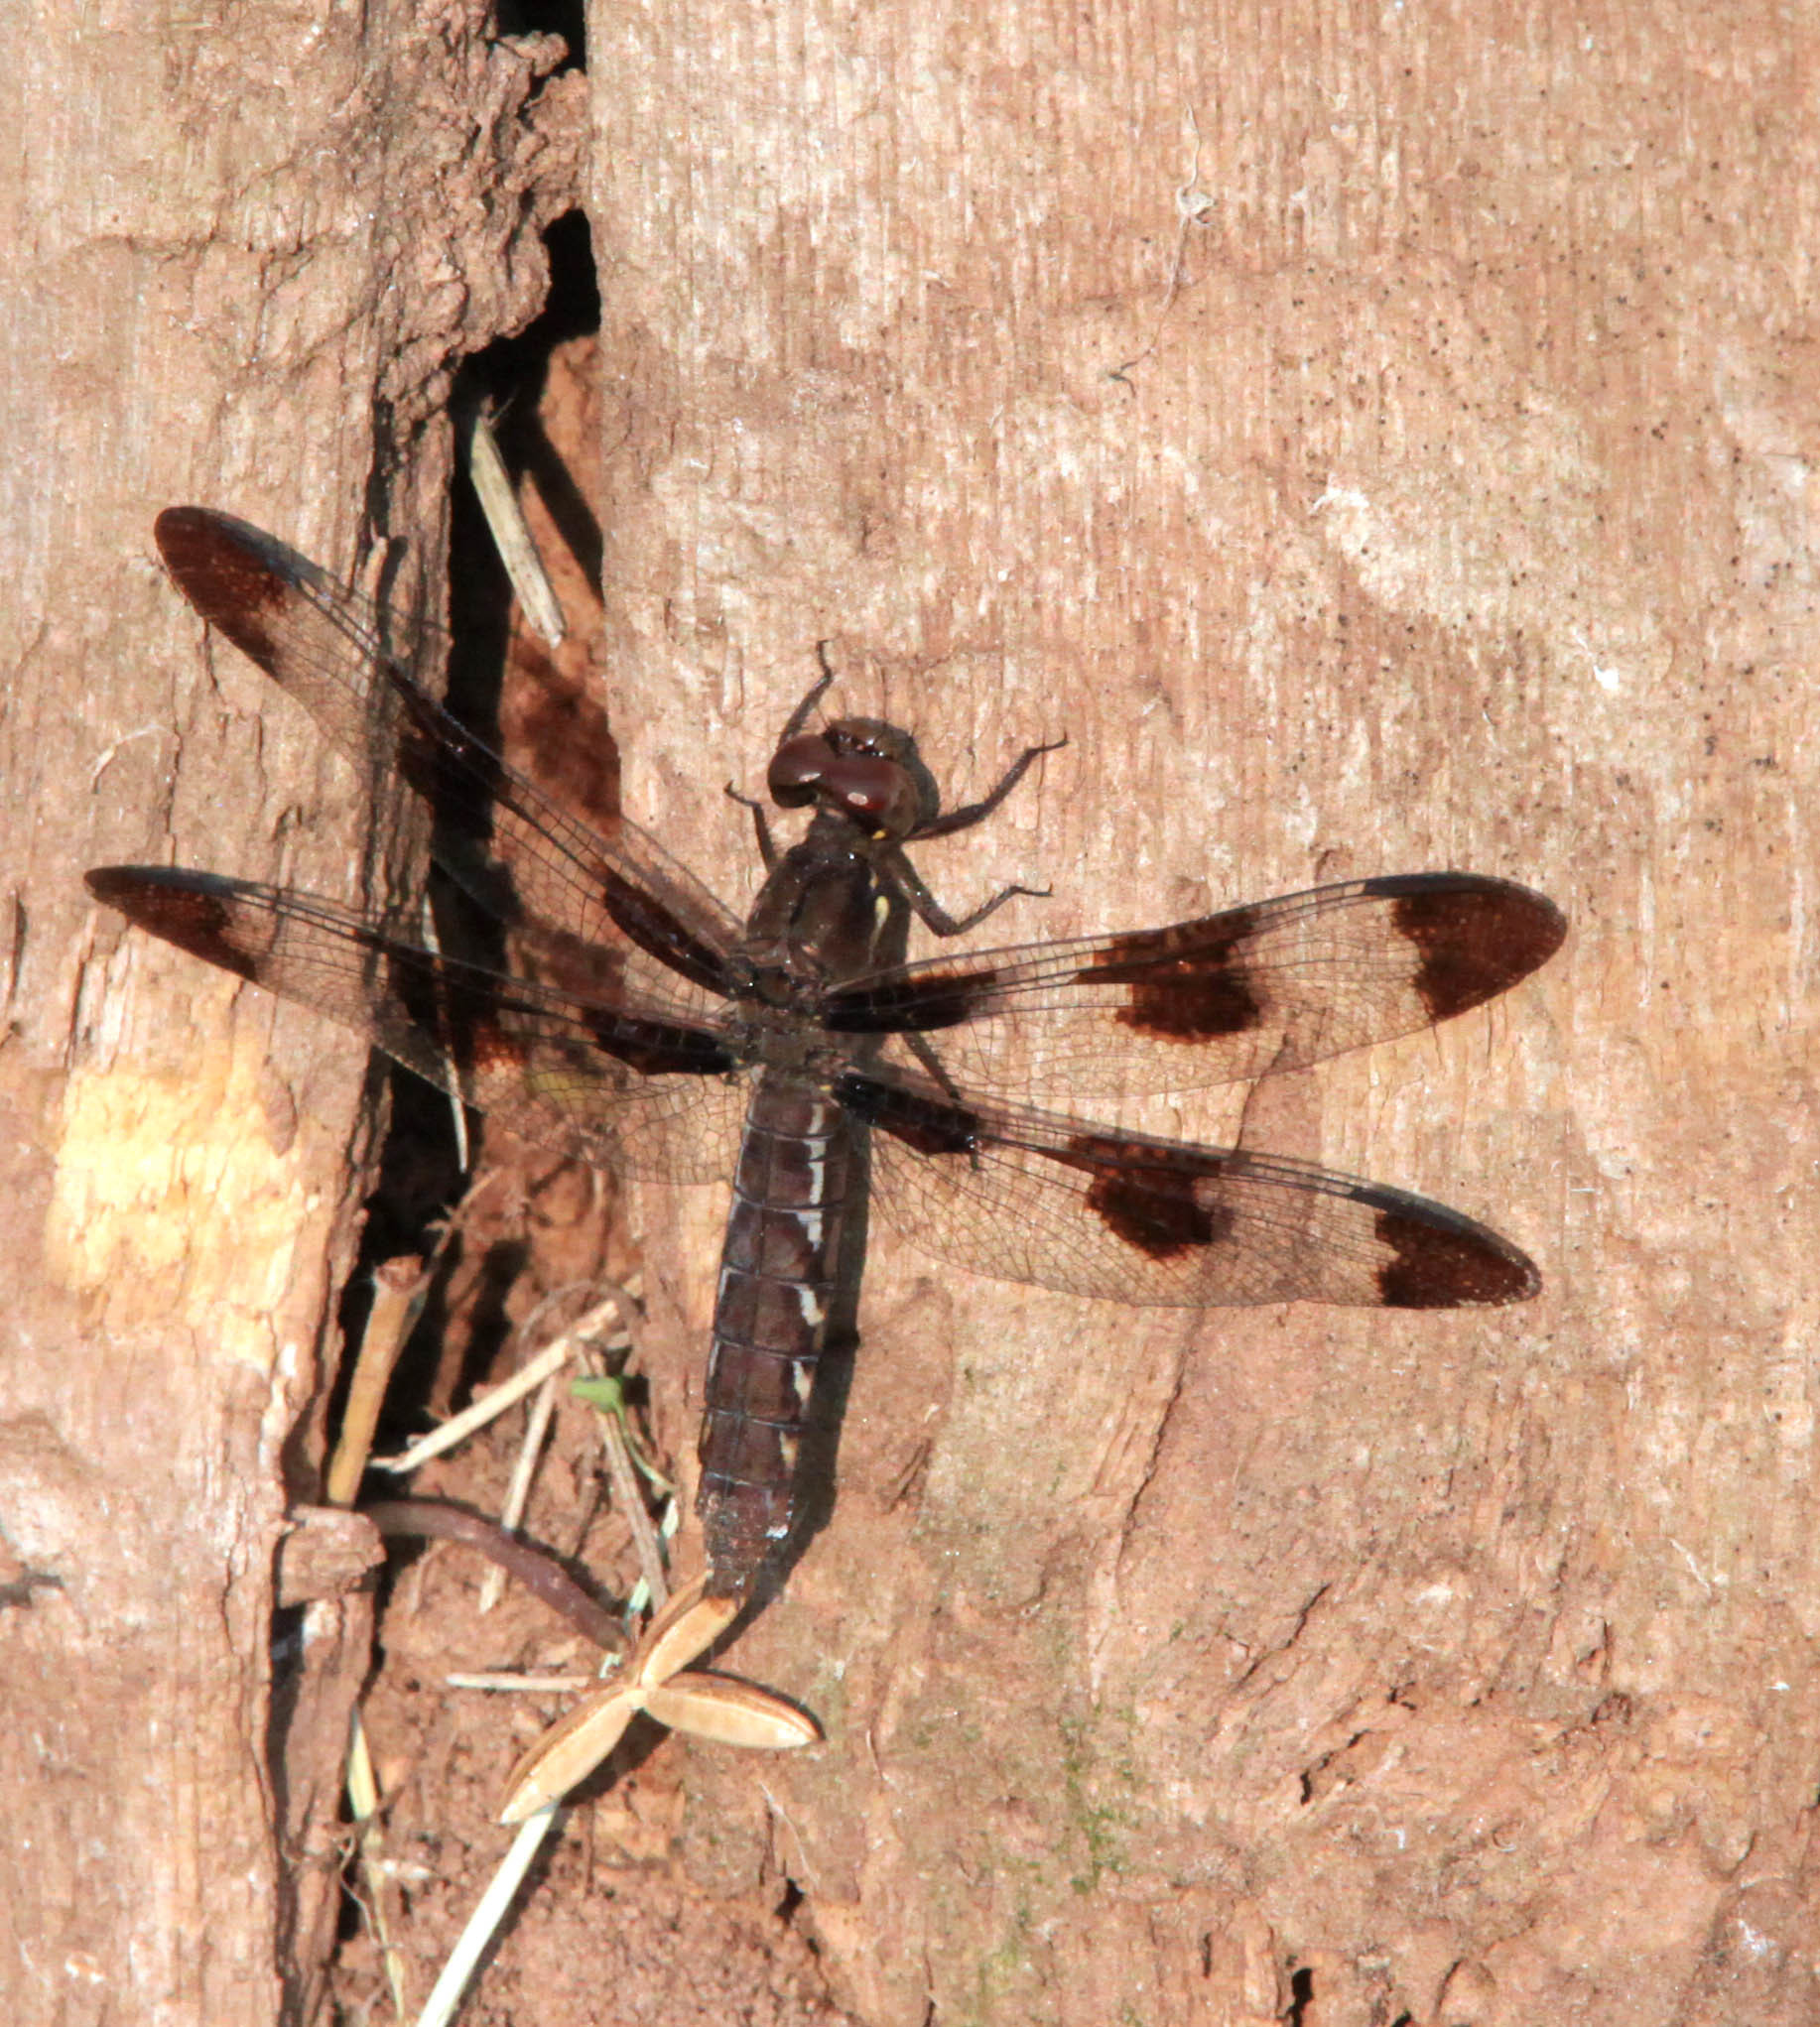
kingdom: Animalia
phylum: Arthropoda
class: Insecta
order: Odonata
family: Libellulidae
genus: Plathemis
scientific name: Plathemis lydia
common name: Common whitetail
